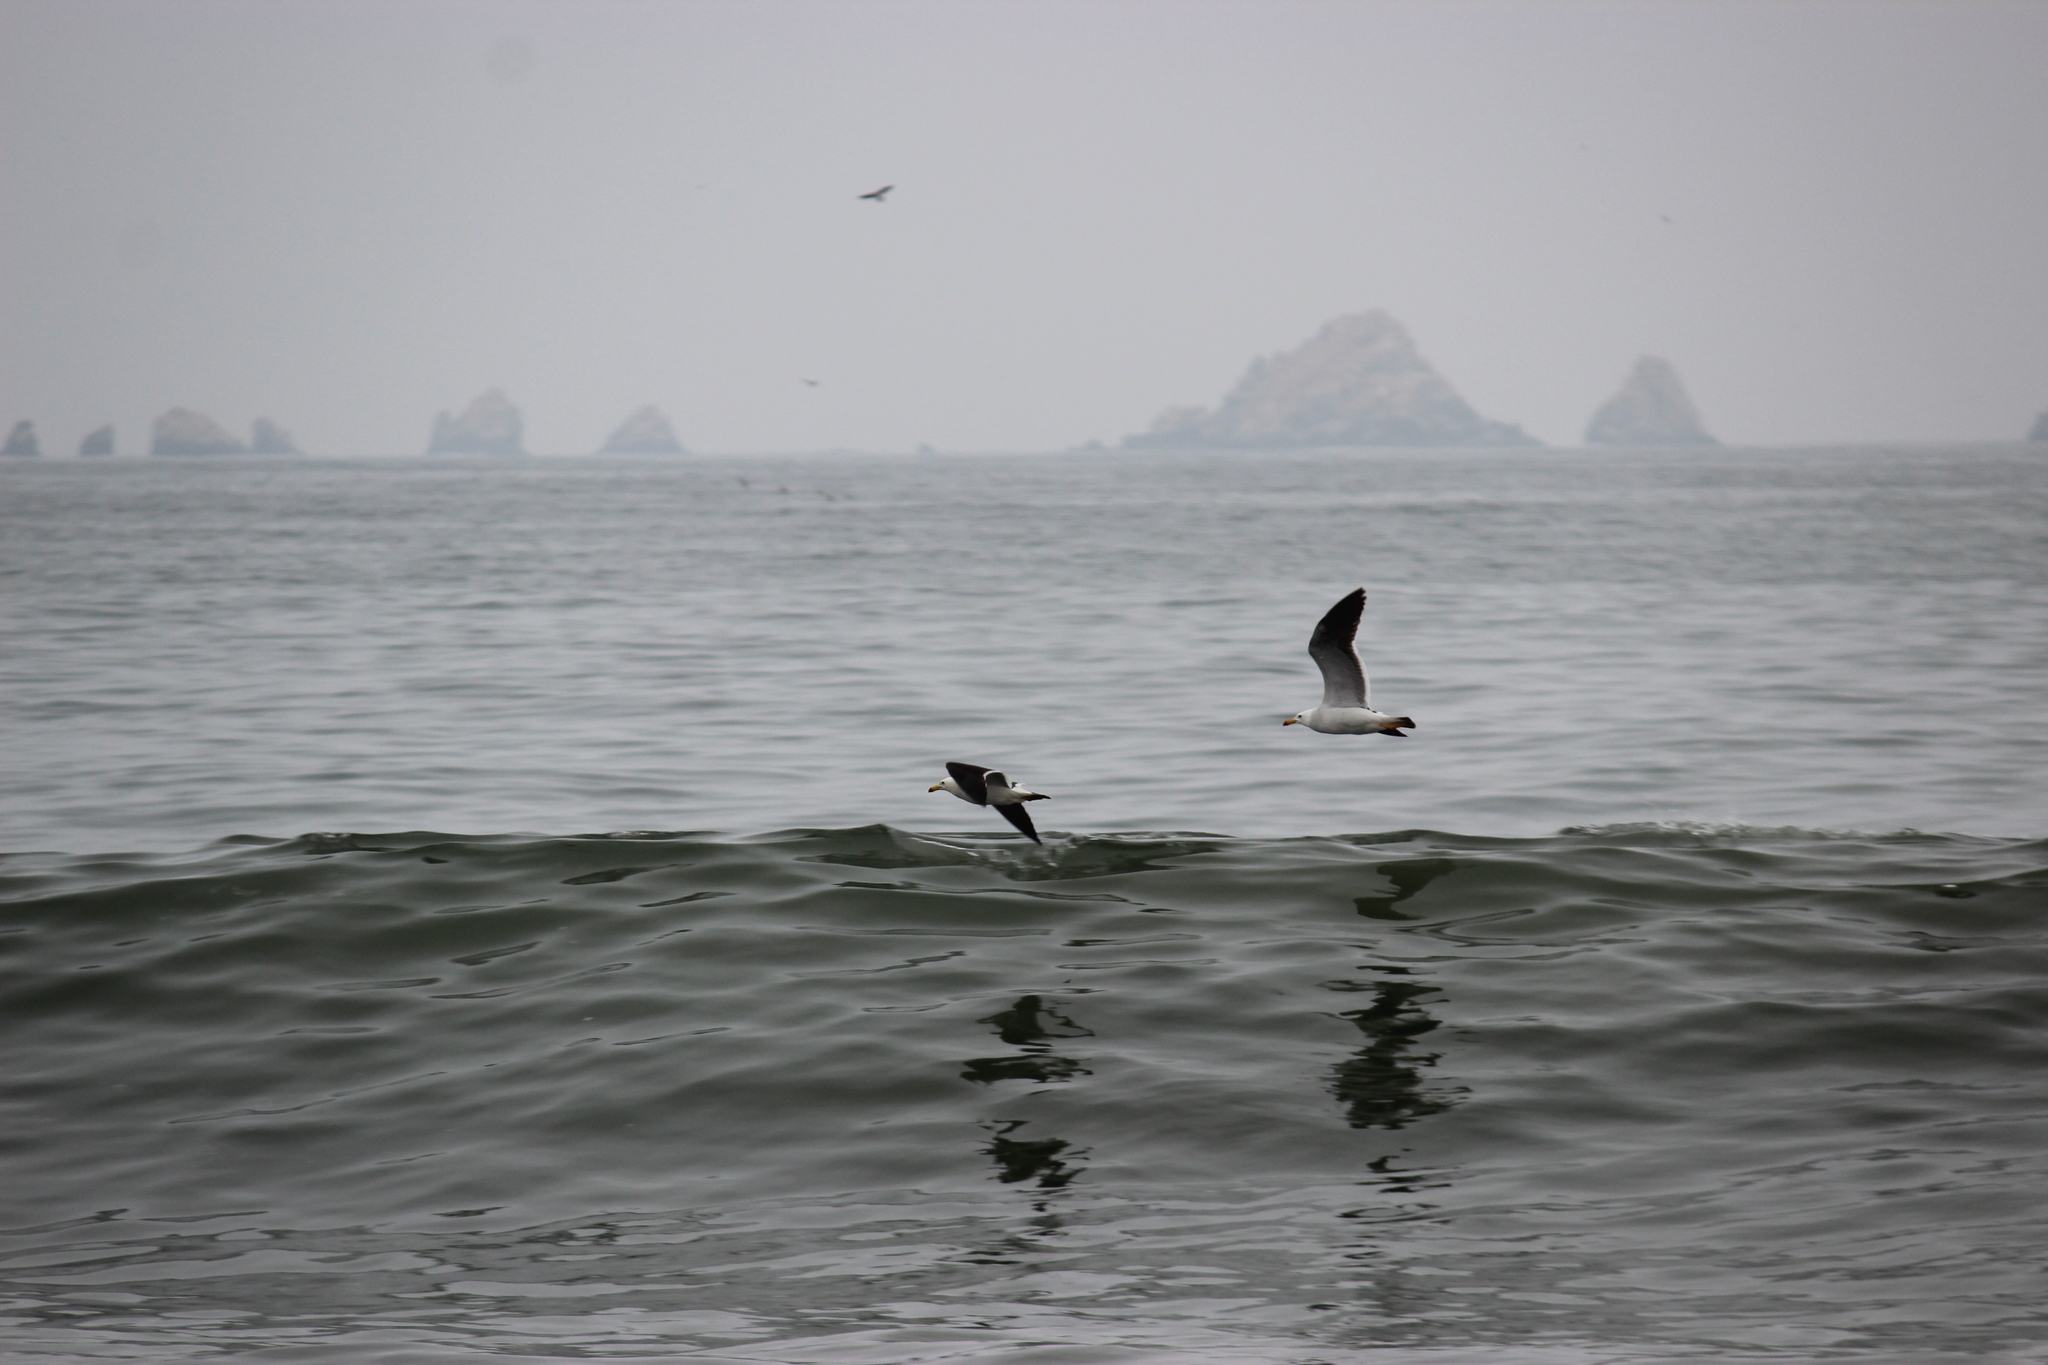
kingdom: Animalia
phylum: Chordata
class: Aves
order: Charadriiformes
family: Laridae
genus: Larus
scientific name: Larus belcheri
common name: Belcher's gull
